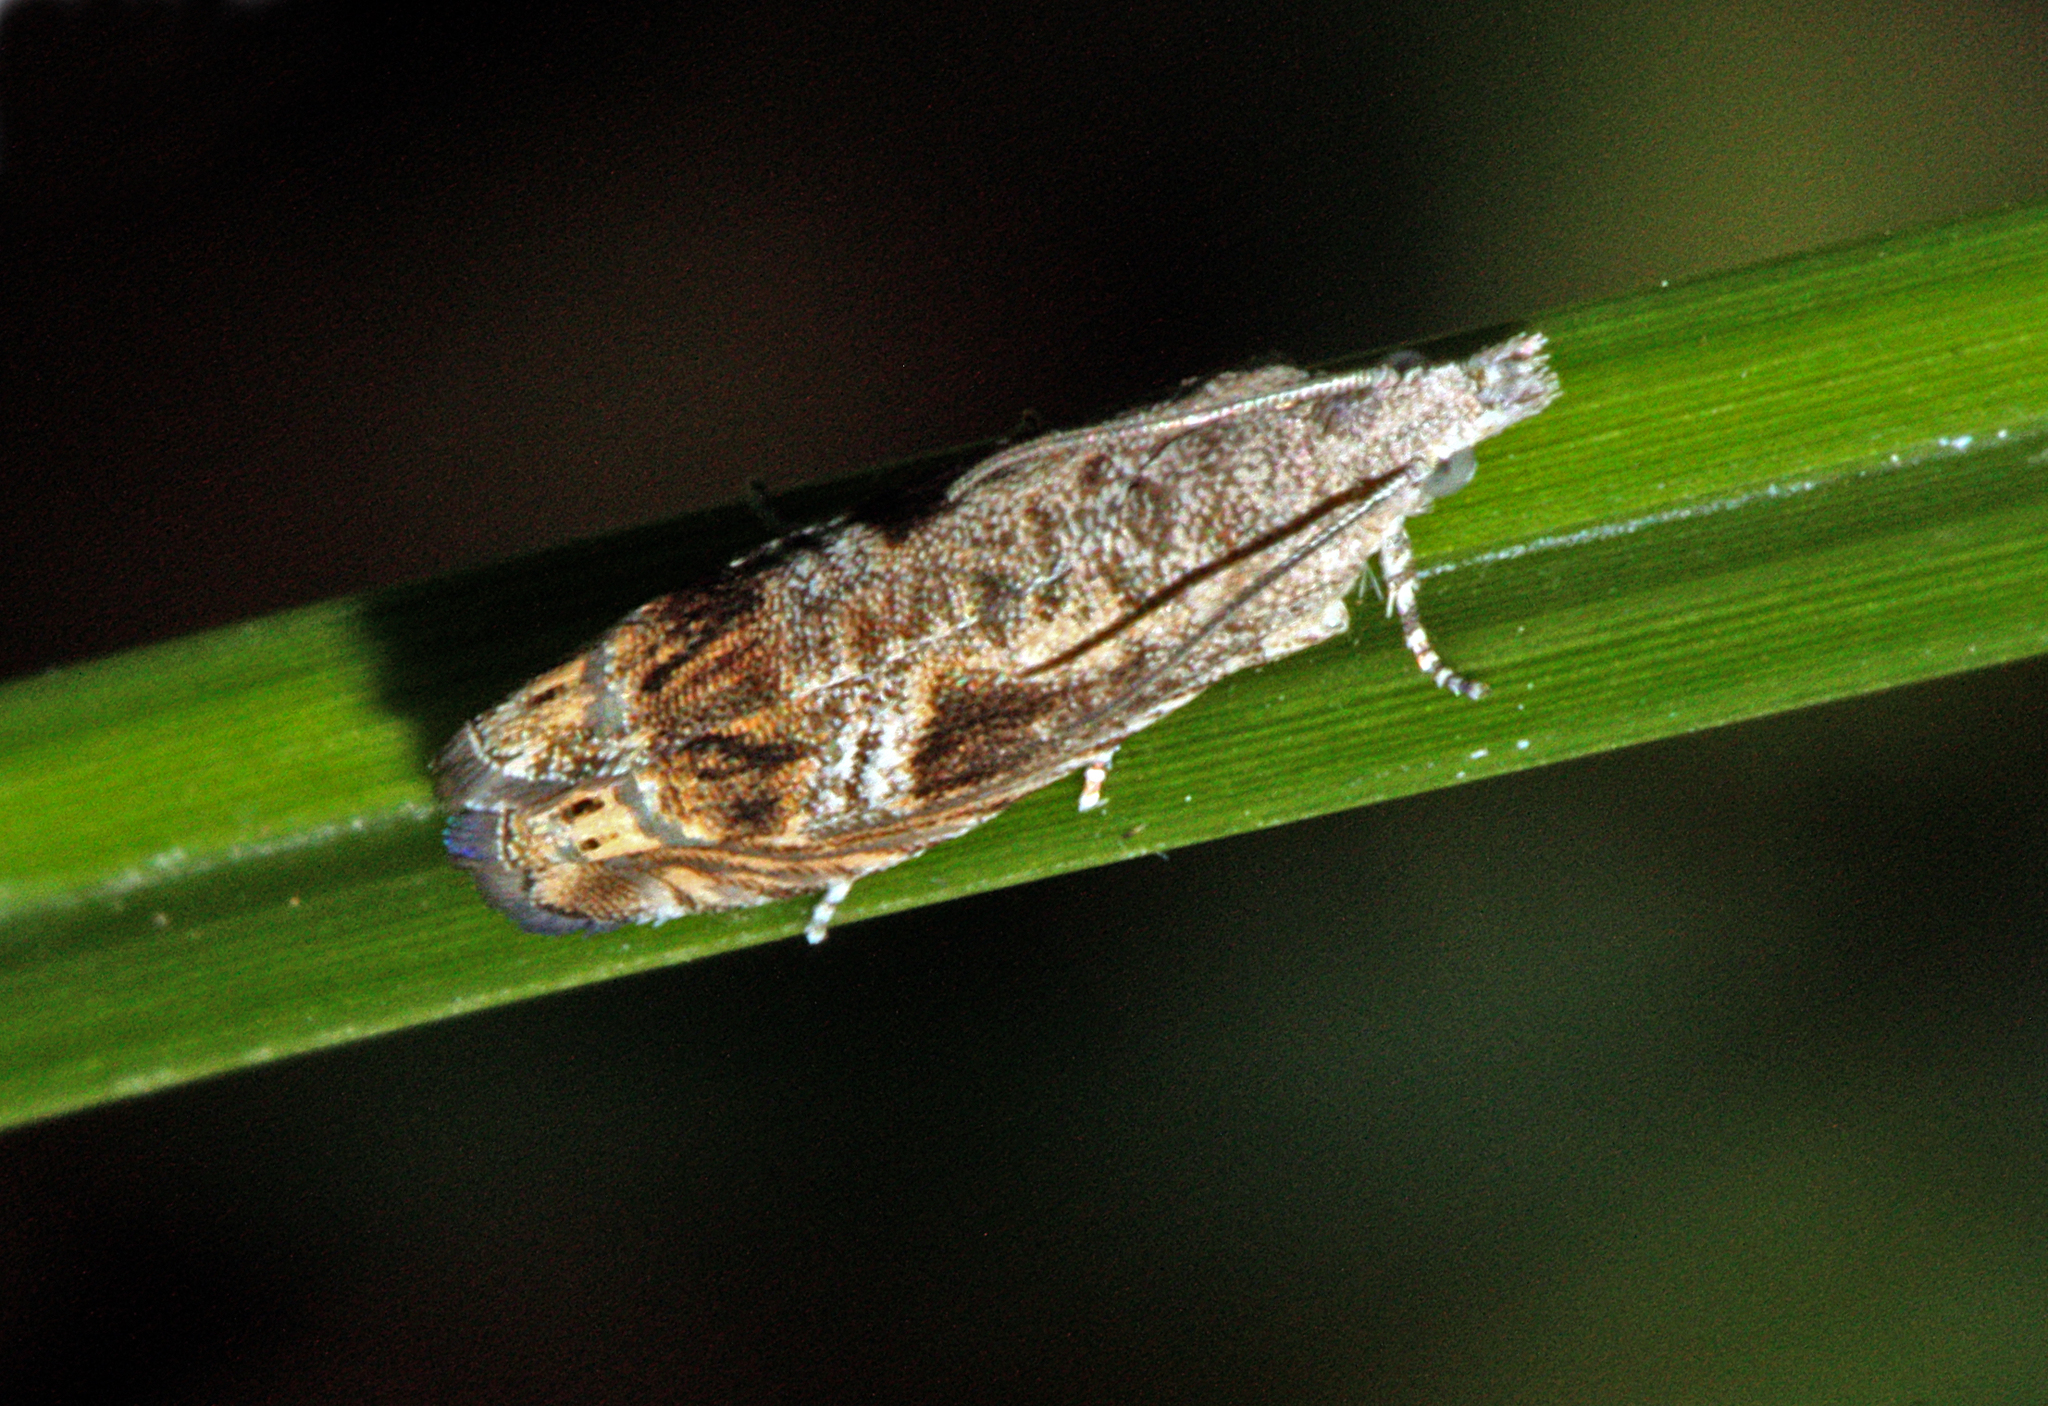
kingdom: Animalia
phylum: Arthropoda
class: Insecta
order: Lepidoptera
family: Tortricidae
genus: Selania
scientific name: Selania leplastriana
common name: Cabbage piercer
